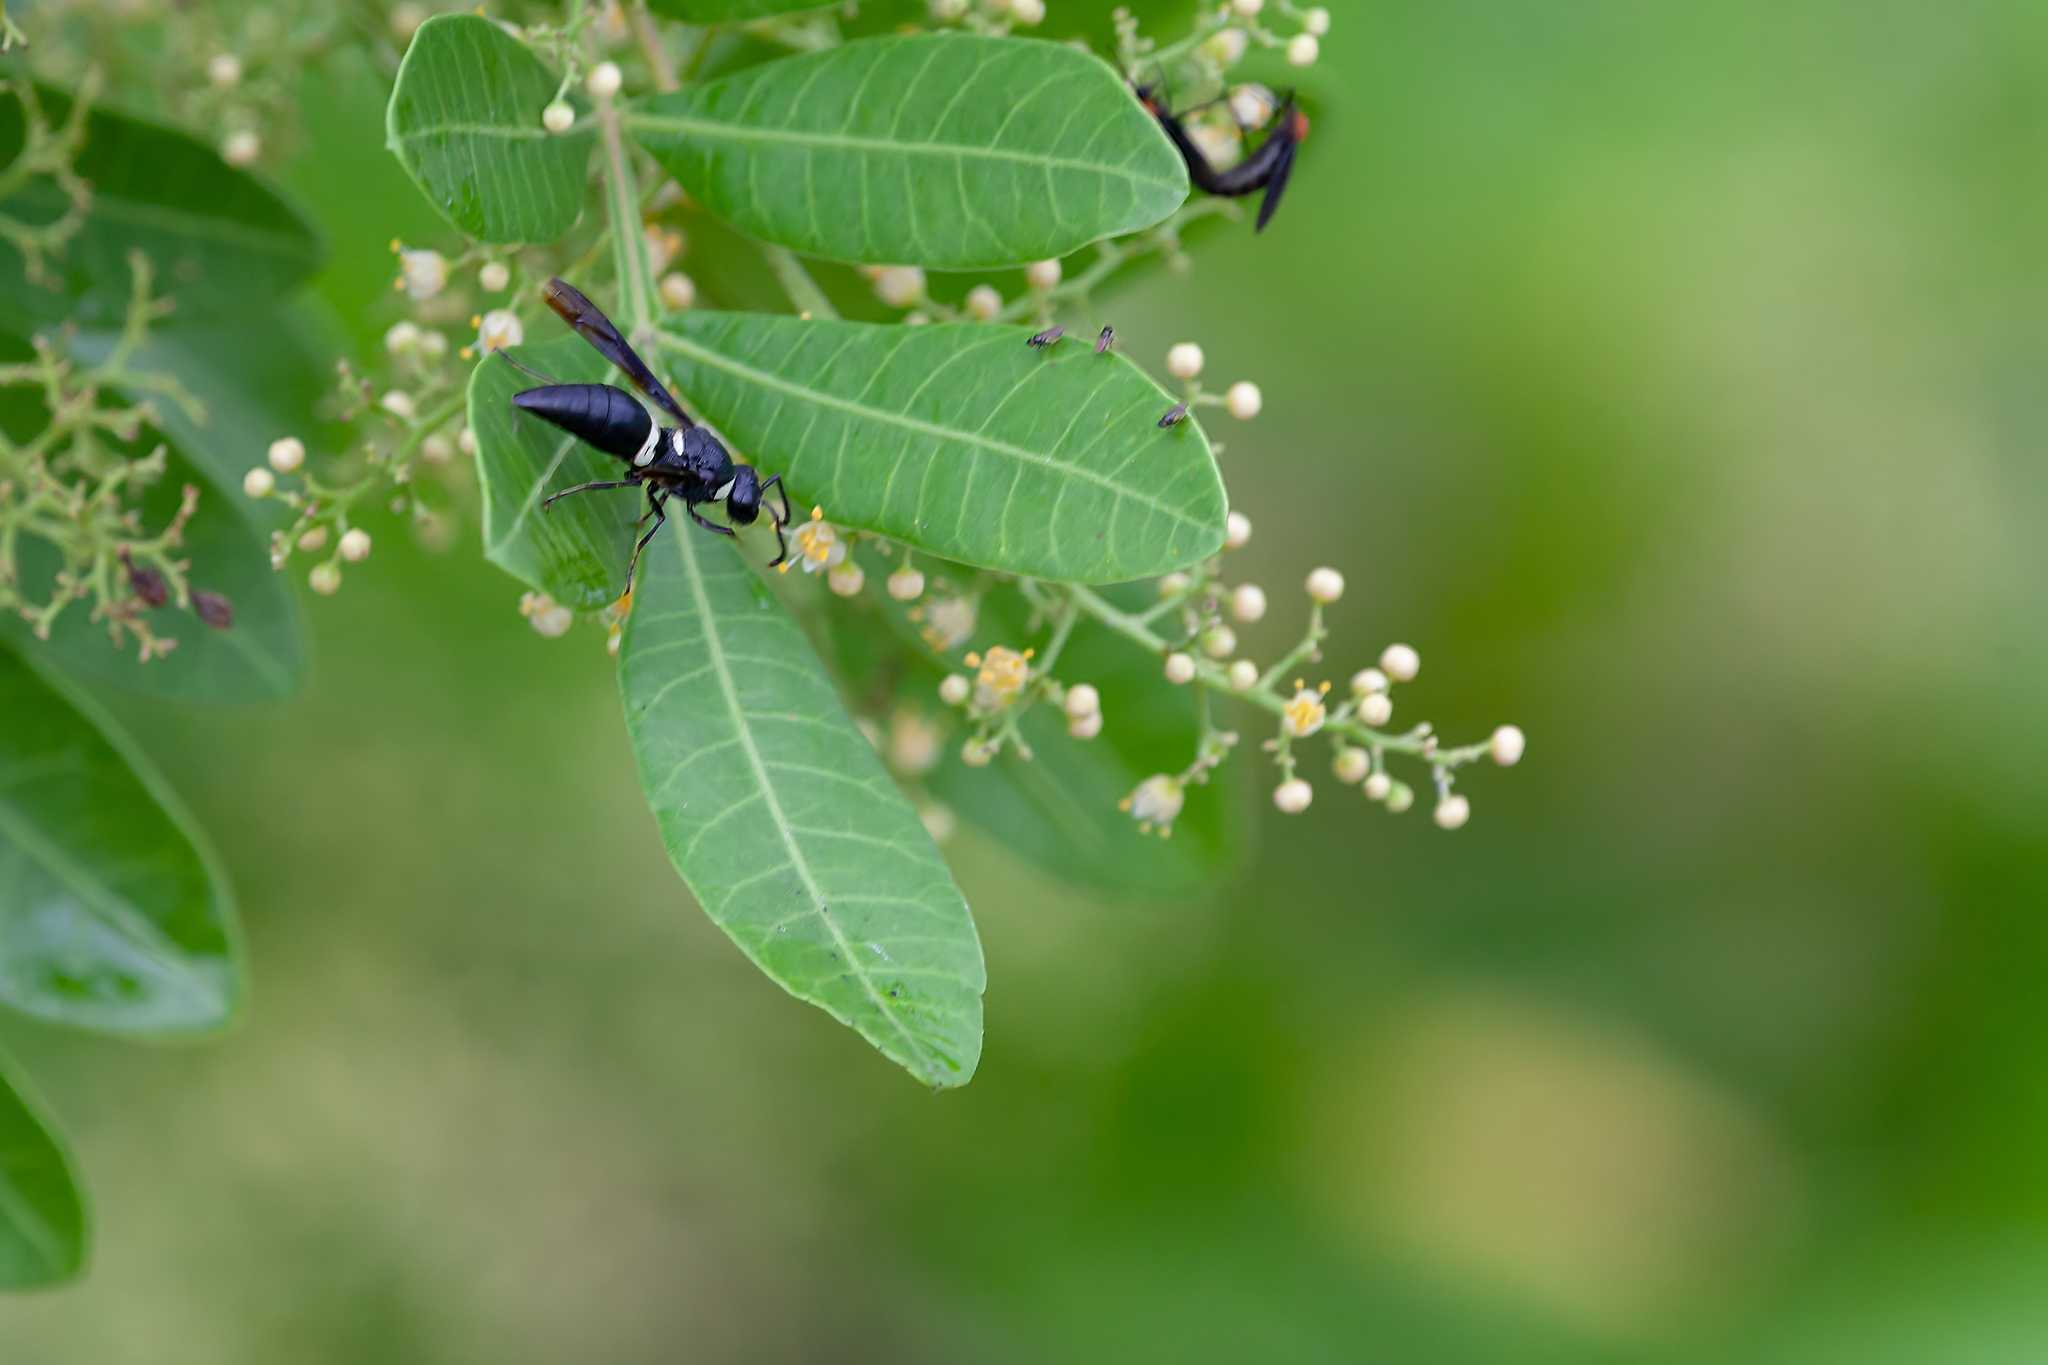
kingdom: Animalia
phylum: Arthropoda
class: Insecta
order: Hymenoptera
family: Eumenidae
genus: Monobia
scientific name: Monobia quadridens
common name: Four-toothed mason wasp
